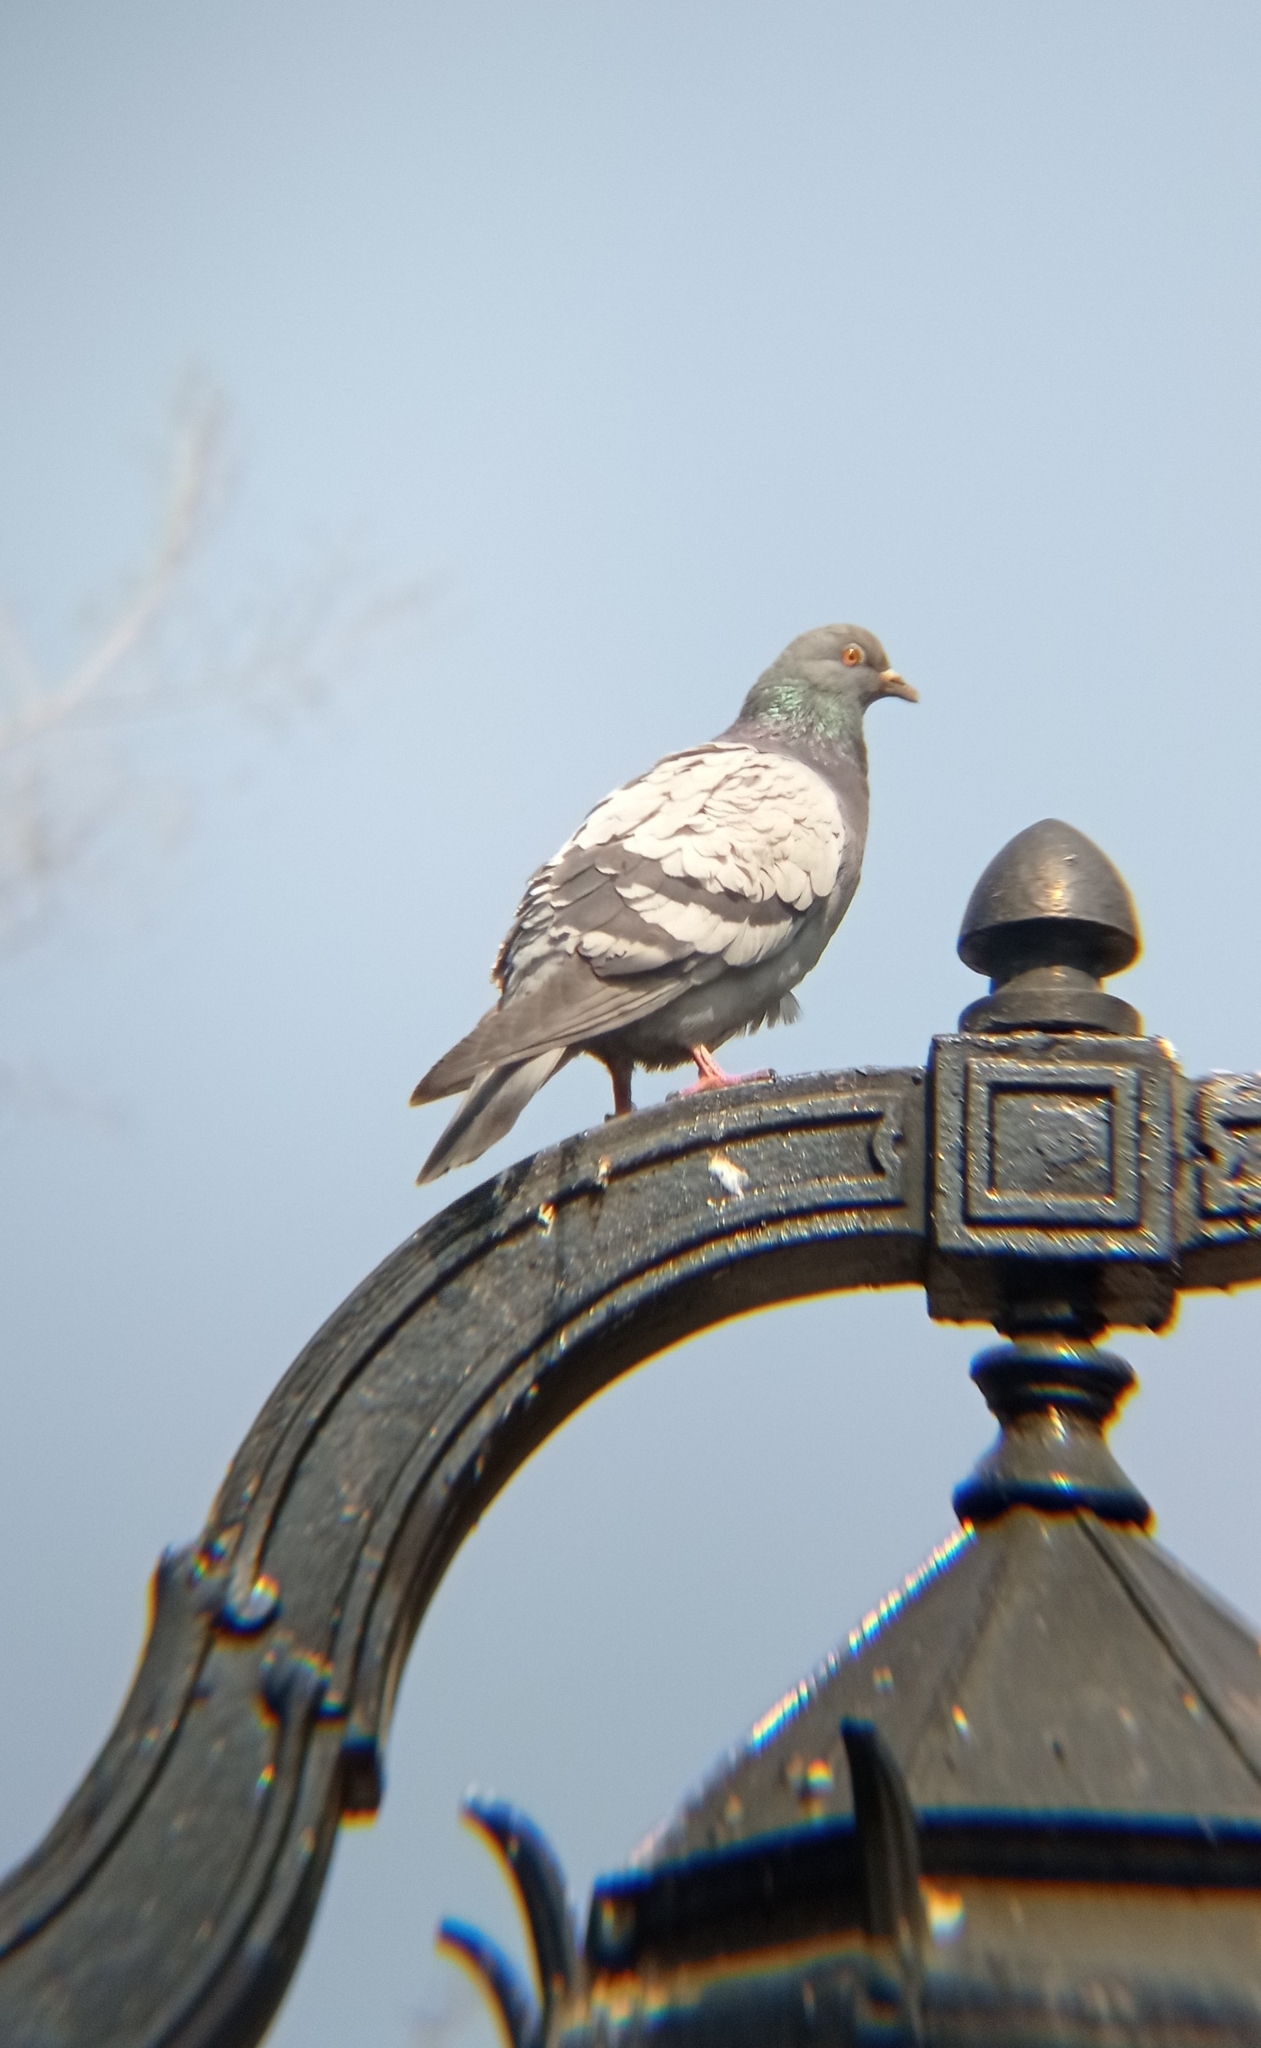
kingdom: Animalia
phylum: Chordata
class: Aves
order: Columbiformes
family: Columbidae
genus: Columba
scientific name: Columba livia
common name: Rock pigeon
